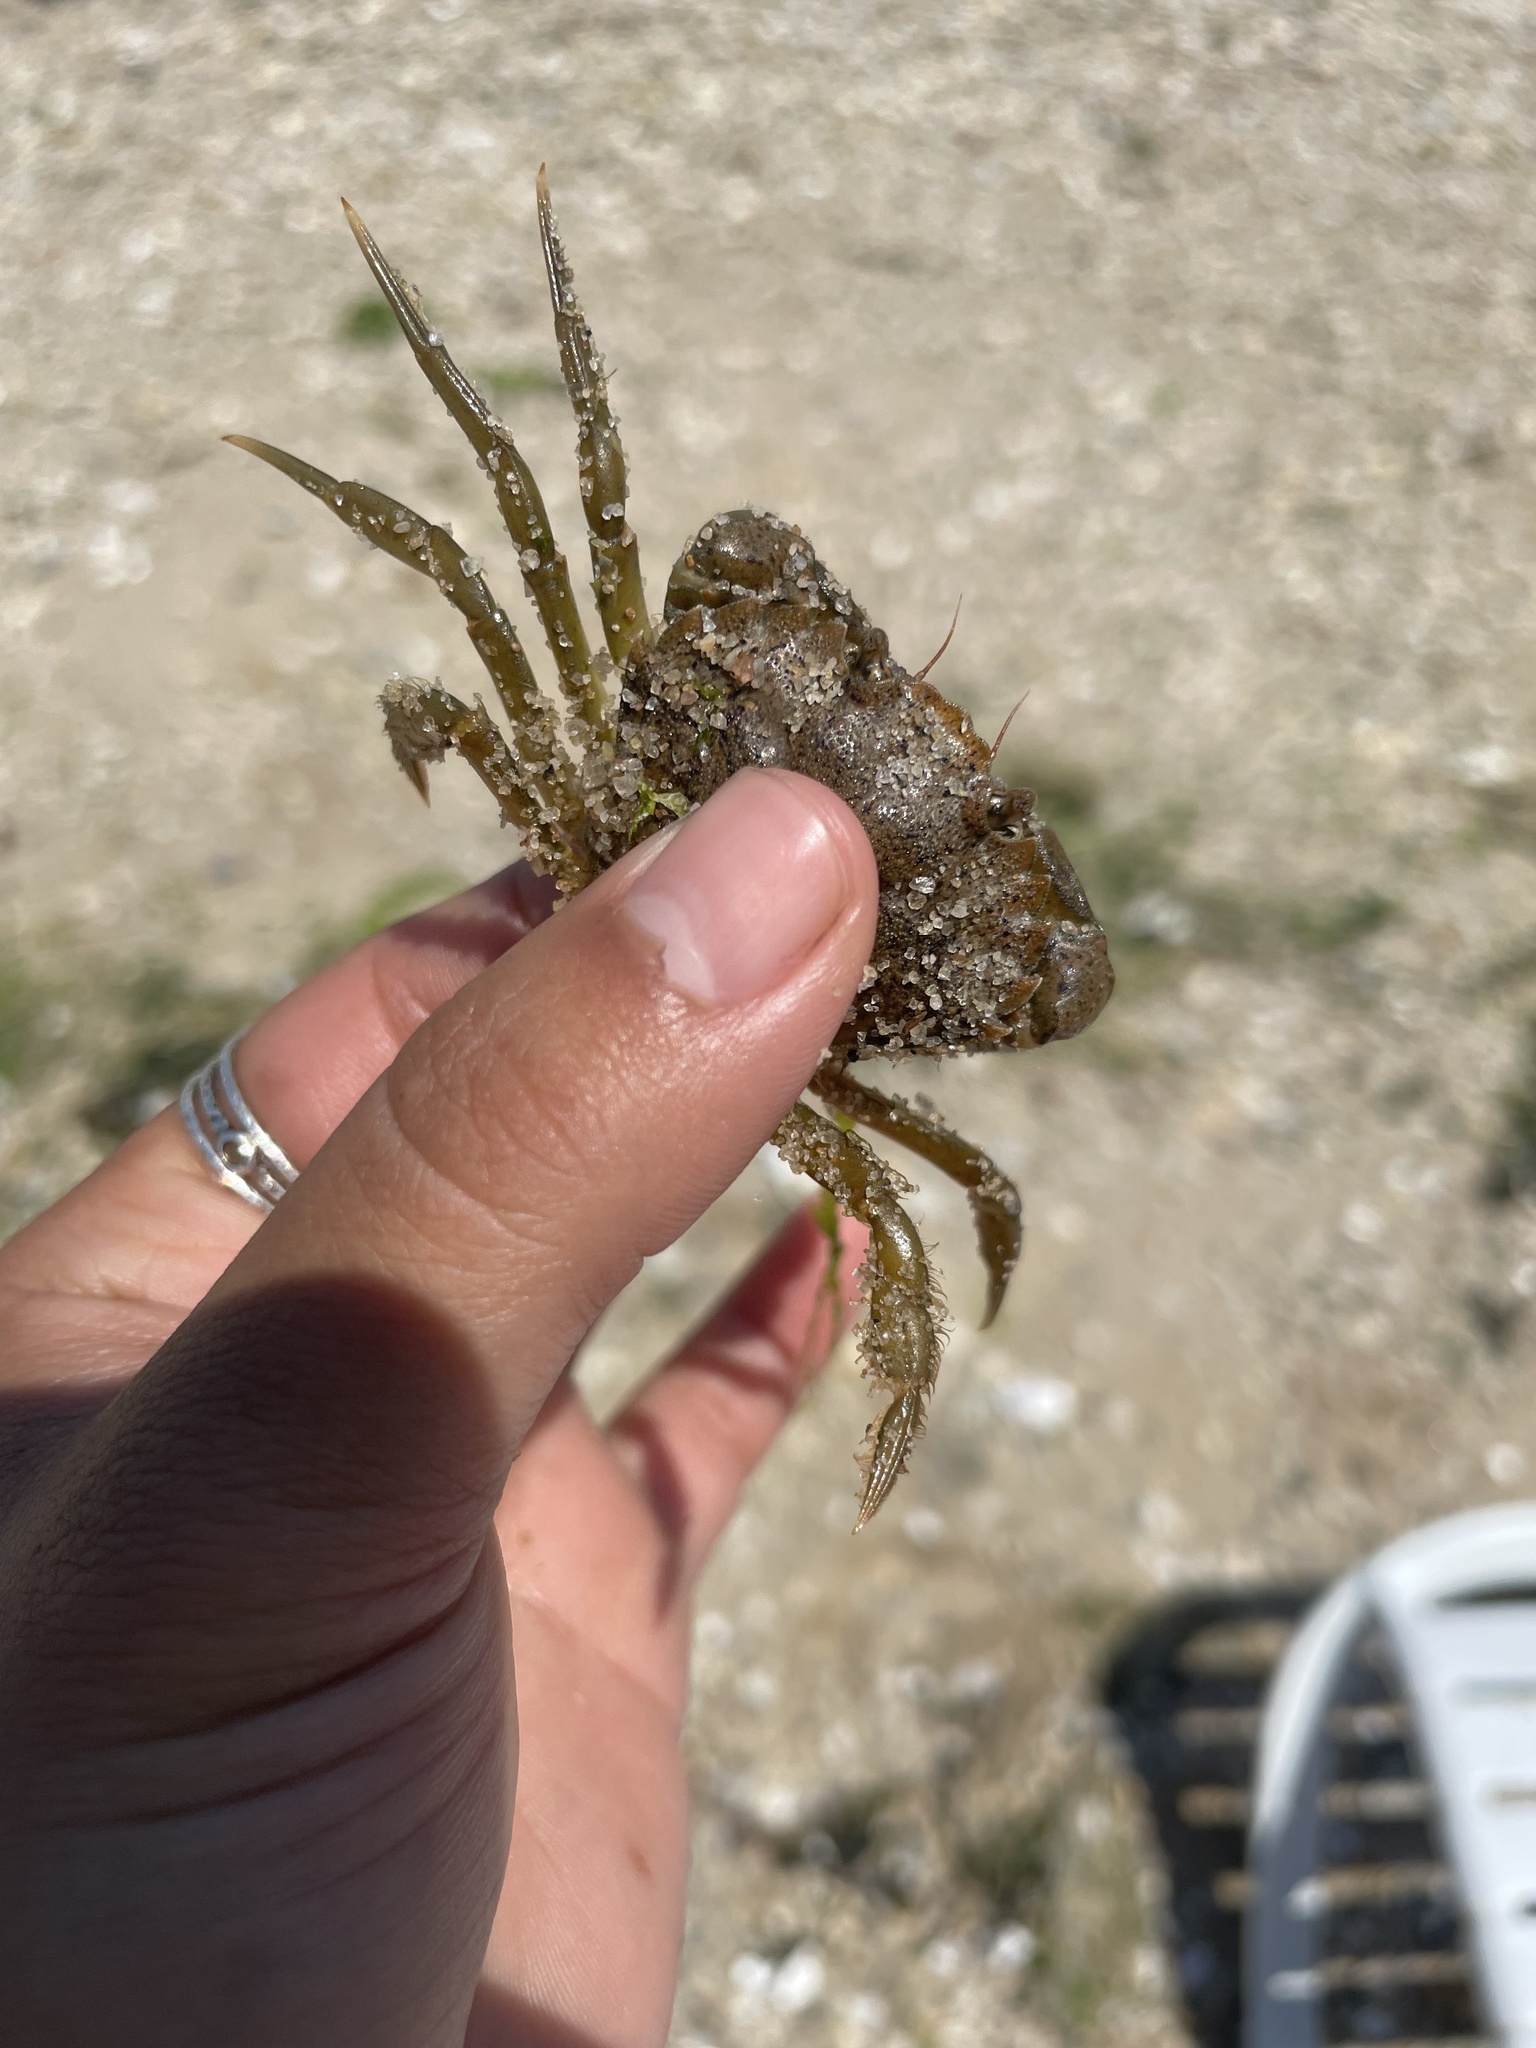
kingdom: Animalia
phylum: Arthropoda
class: Malacostraca
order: Decapoda
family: Carcinidae
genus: Carcinus
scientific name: Carcinus maenas
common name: European green crab
